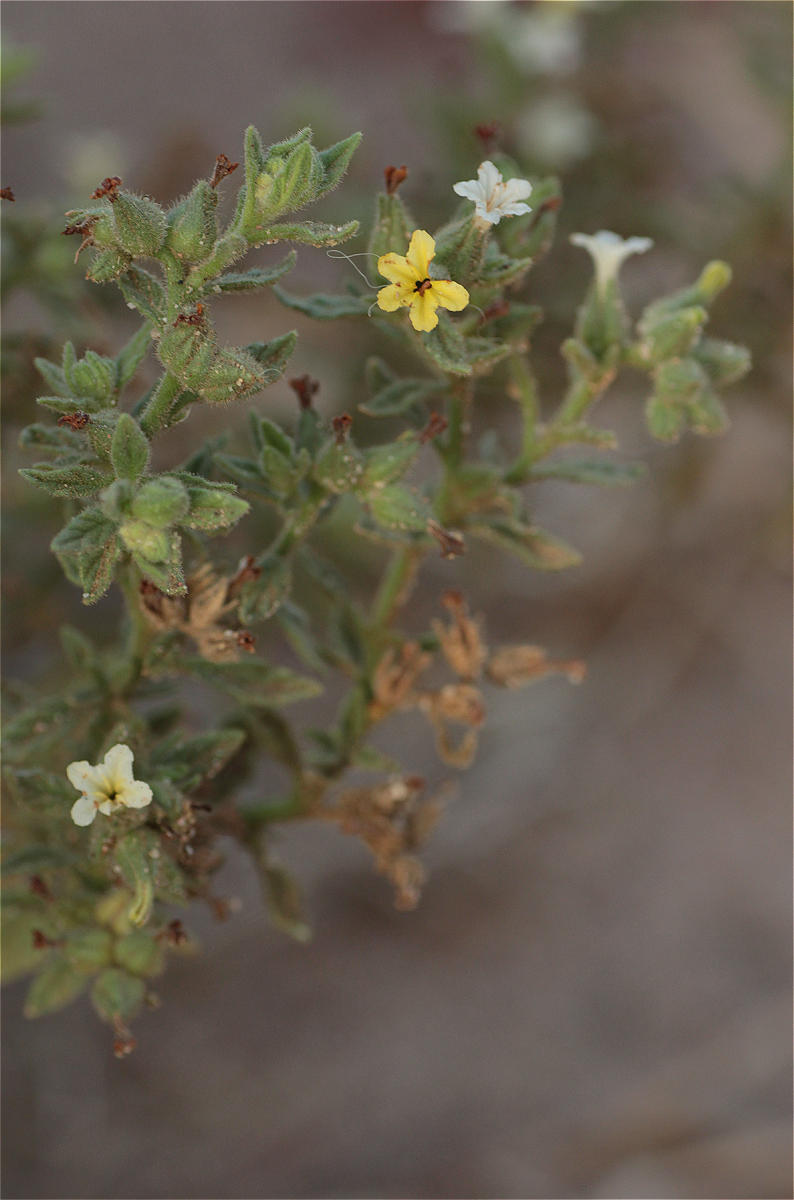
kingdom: Plantae
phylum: Tracheophyta
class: Magnoliopsida
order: Boraginales
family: Heliotropiaceae
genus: Heliotropium
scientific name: Heliotropium arbainense
